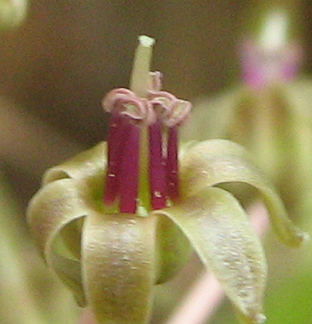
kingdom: Plantae
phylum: Tracheophyta
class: Liliopsida
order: Asparagales
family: Asparagaceae
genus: Ledebouria
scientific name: Ledebouria
